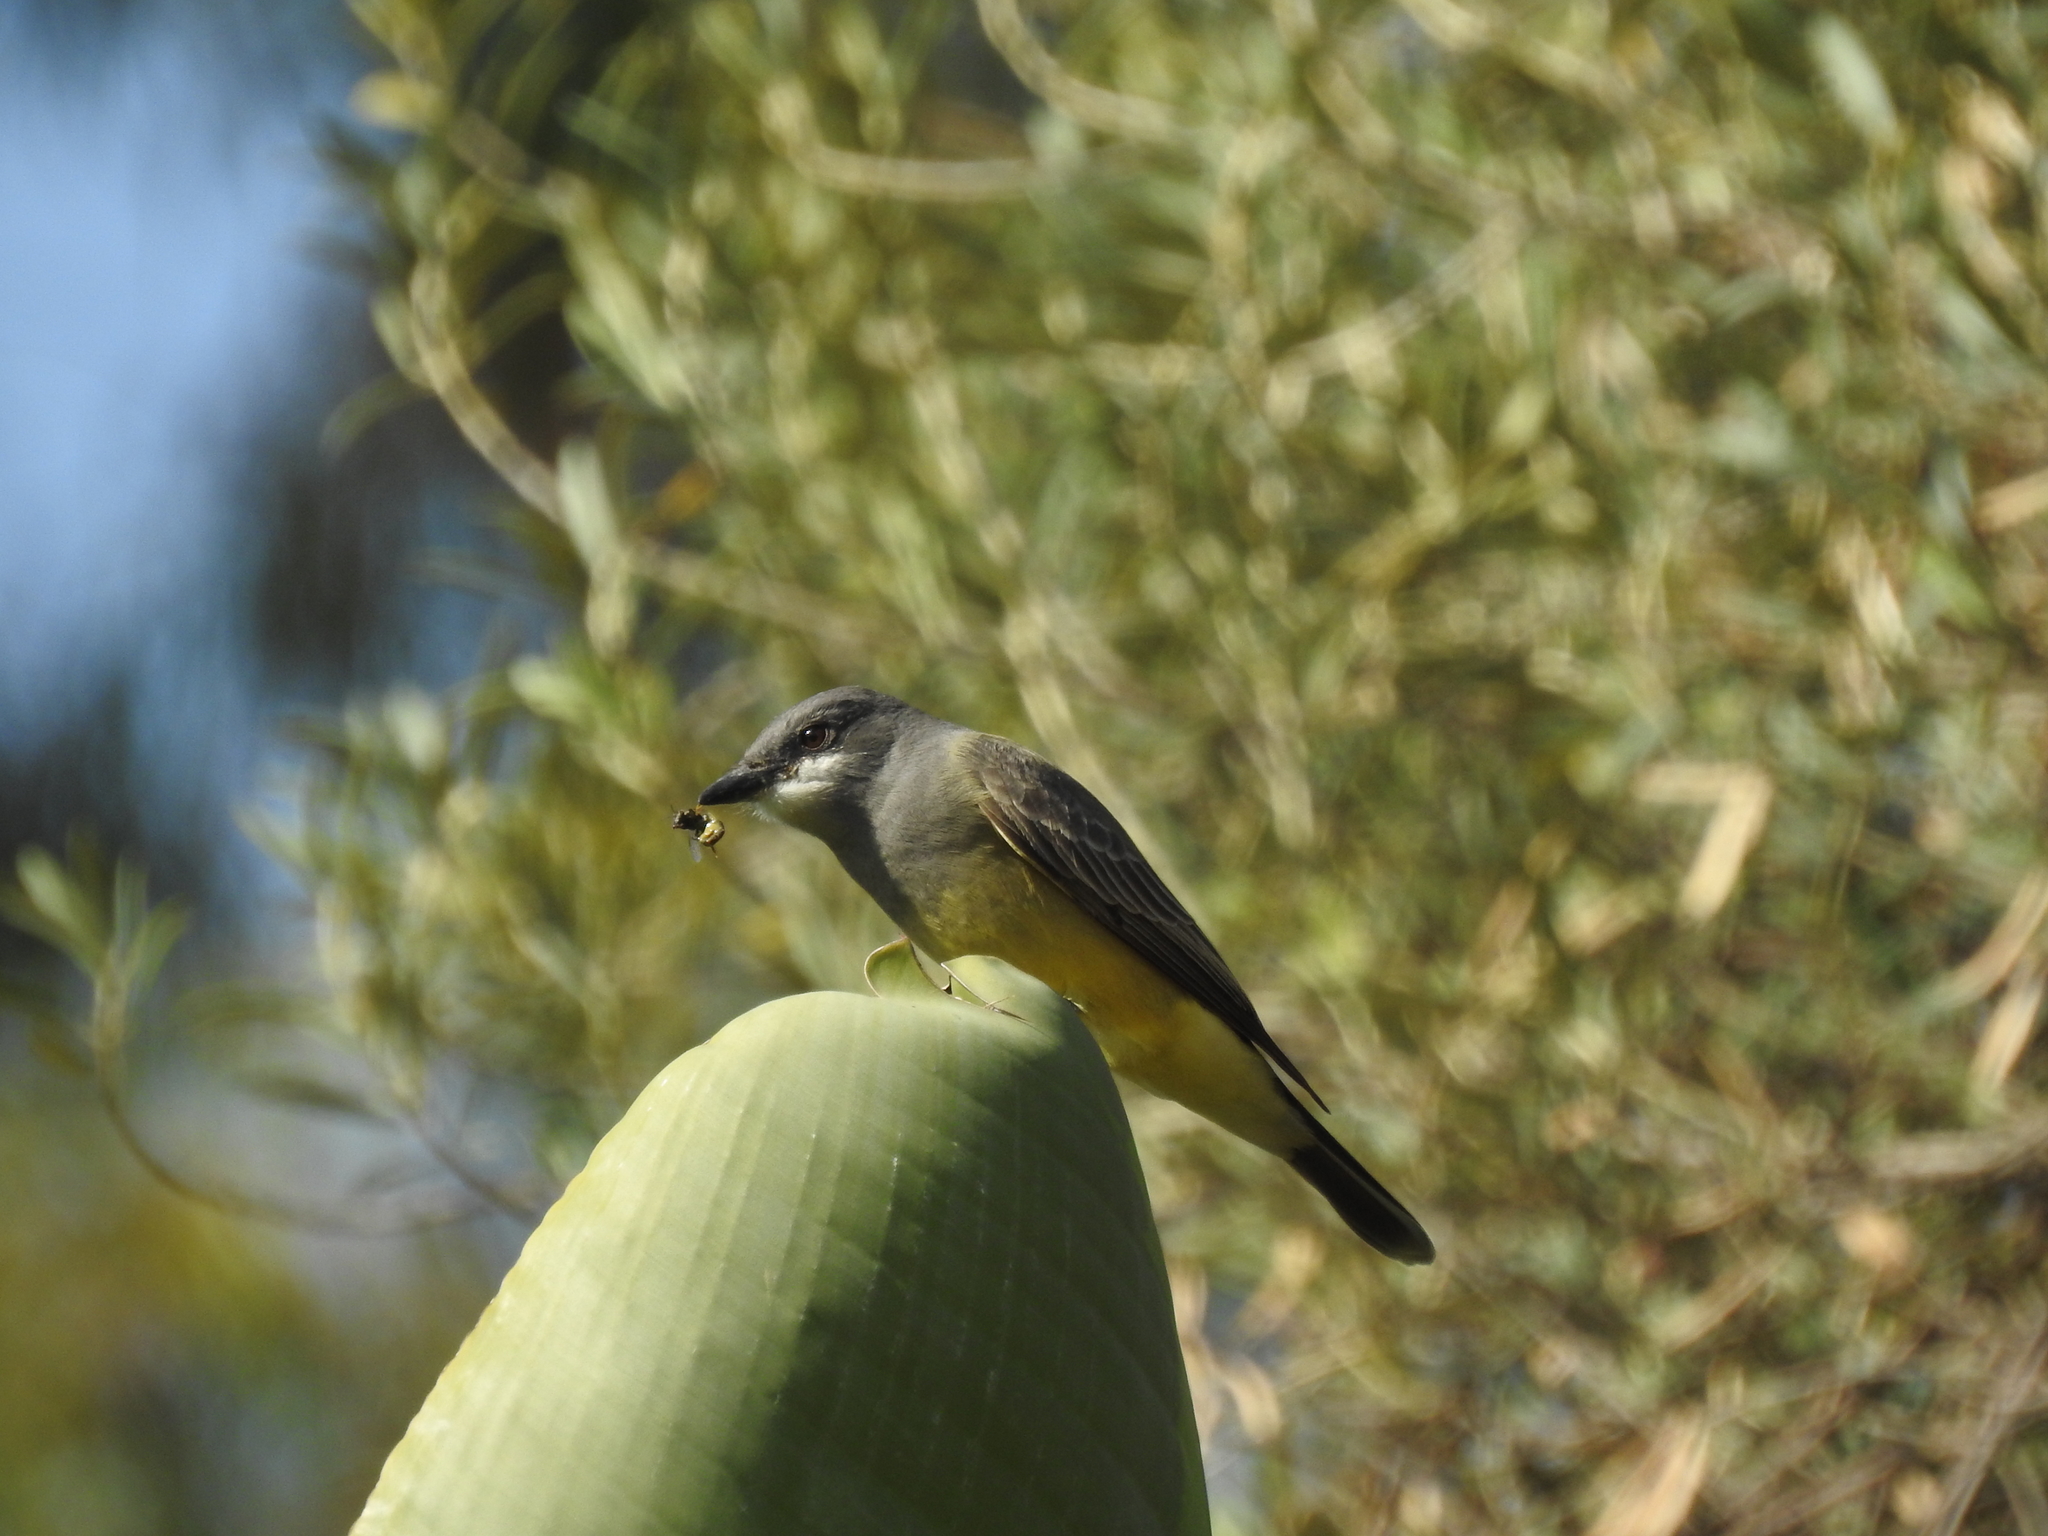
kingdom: Animalia
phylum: Chordata
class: Aves
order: Passeriformes
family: Tyrannidae
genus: Tyrannus
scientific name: Tyrannus vociferans
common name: Cassin's kingbird
